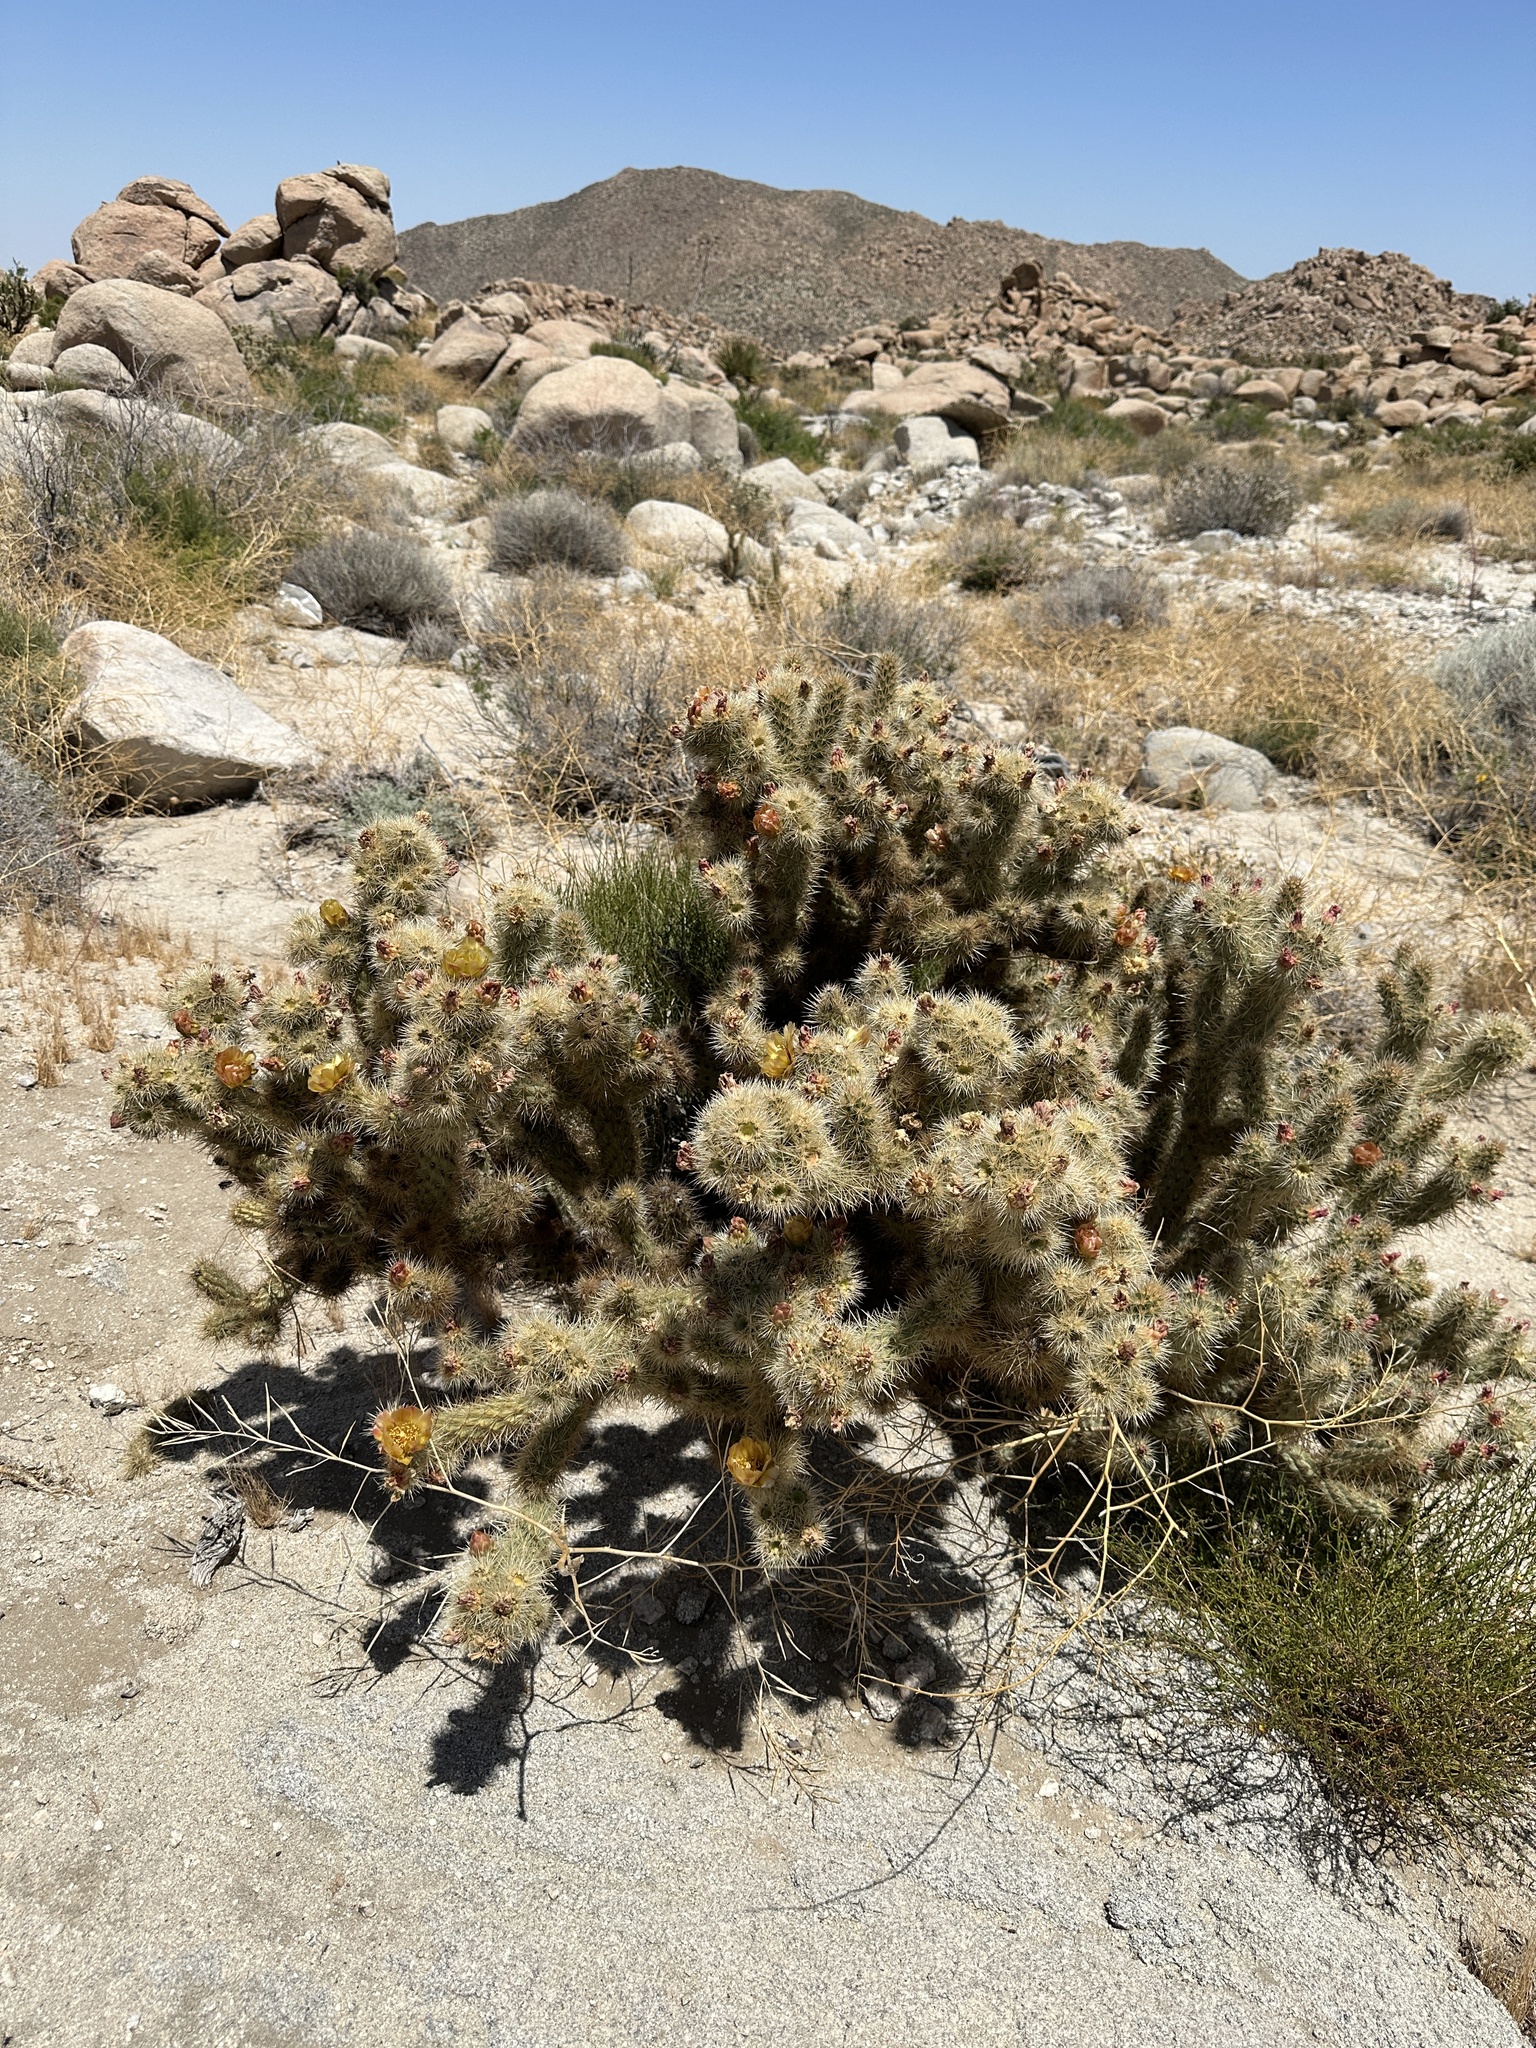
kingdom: Plantae
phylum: Tracheophyta
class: Magnoliopsida
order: Caryophyllales
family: Cactaceae
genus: Cylindropuntia
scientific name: Cylindropuntia wolfii
